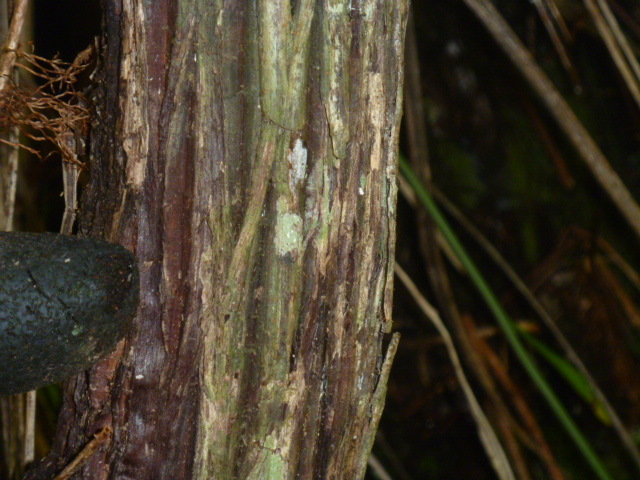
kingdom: Plantae
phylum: Tracheophyta
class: Magnoliopsida
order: Ericales
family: Ericaceae
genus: Dracophyllum
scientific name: Dracophyllum latifolium
